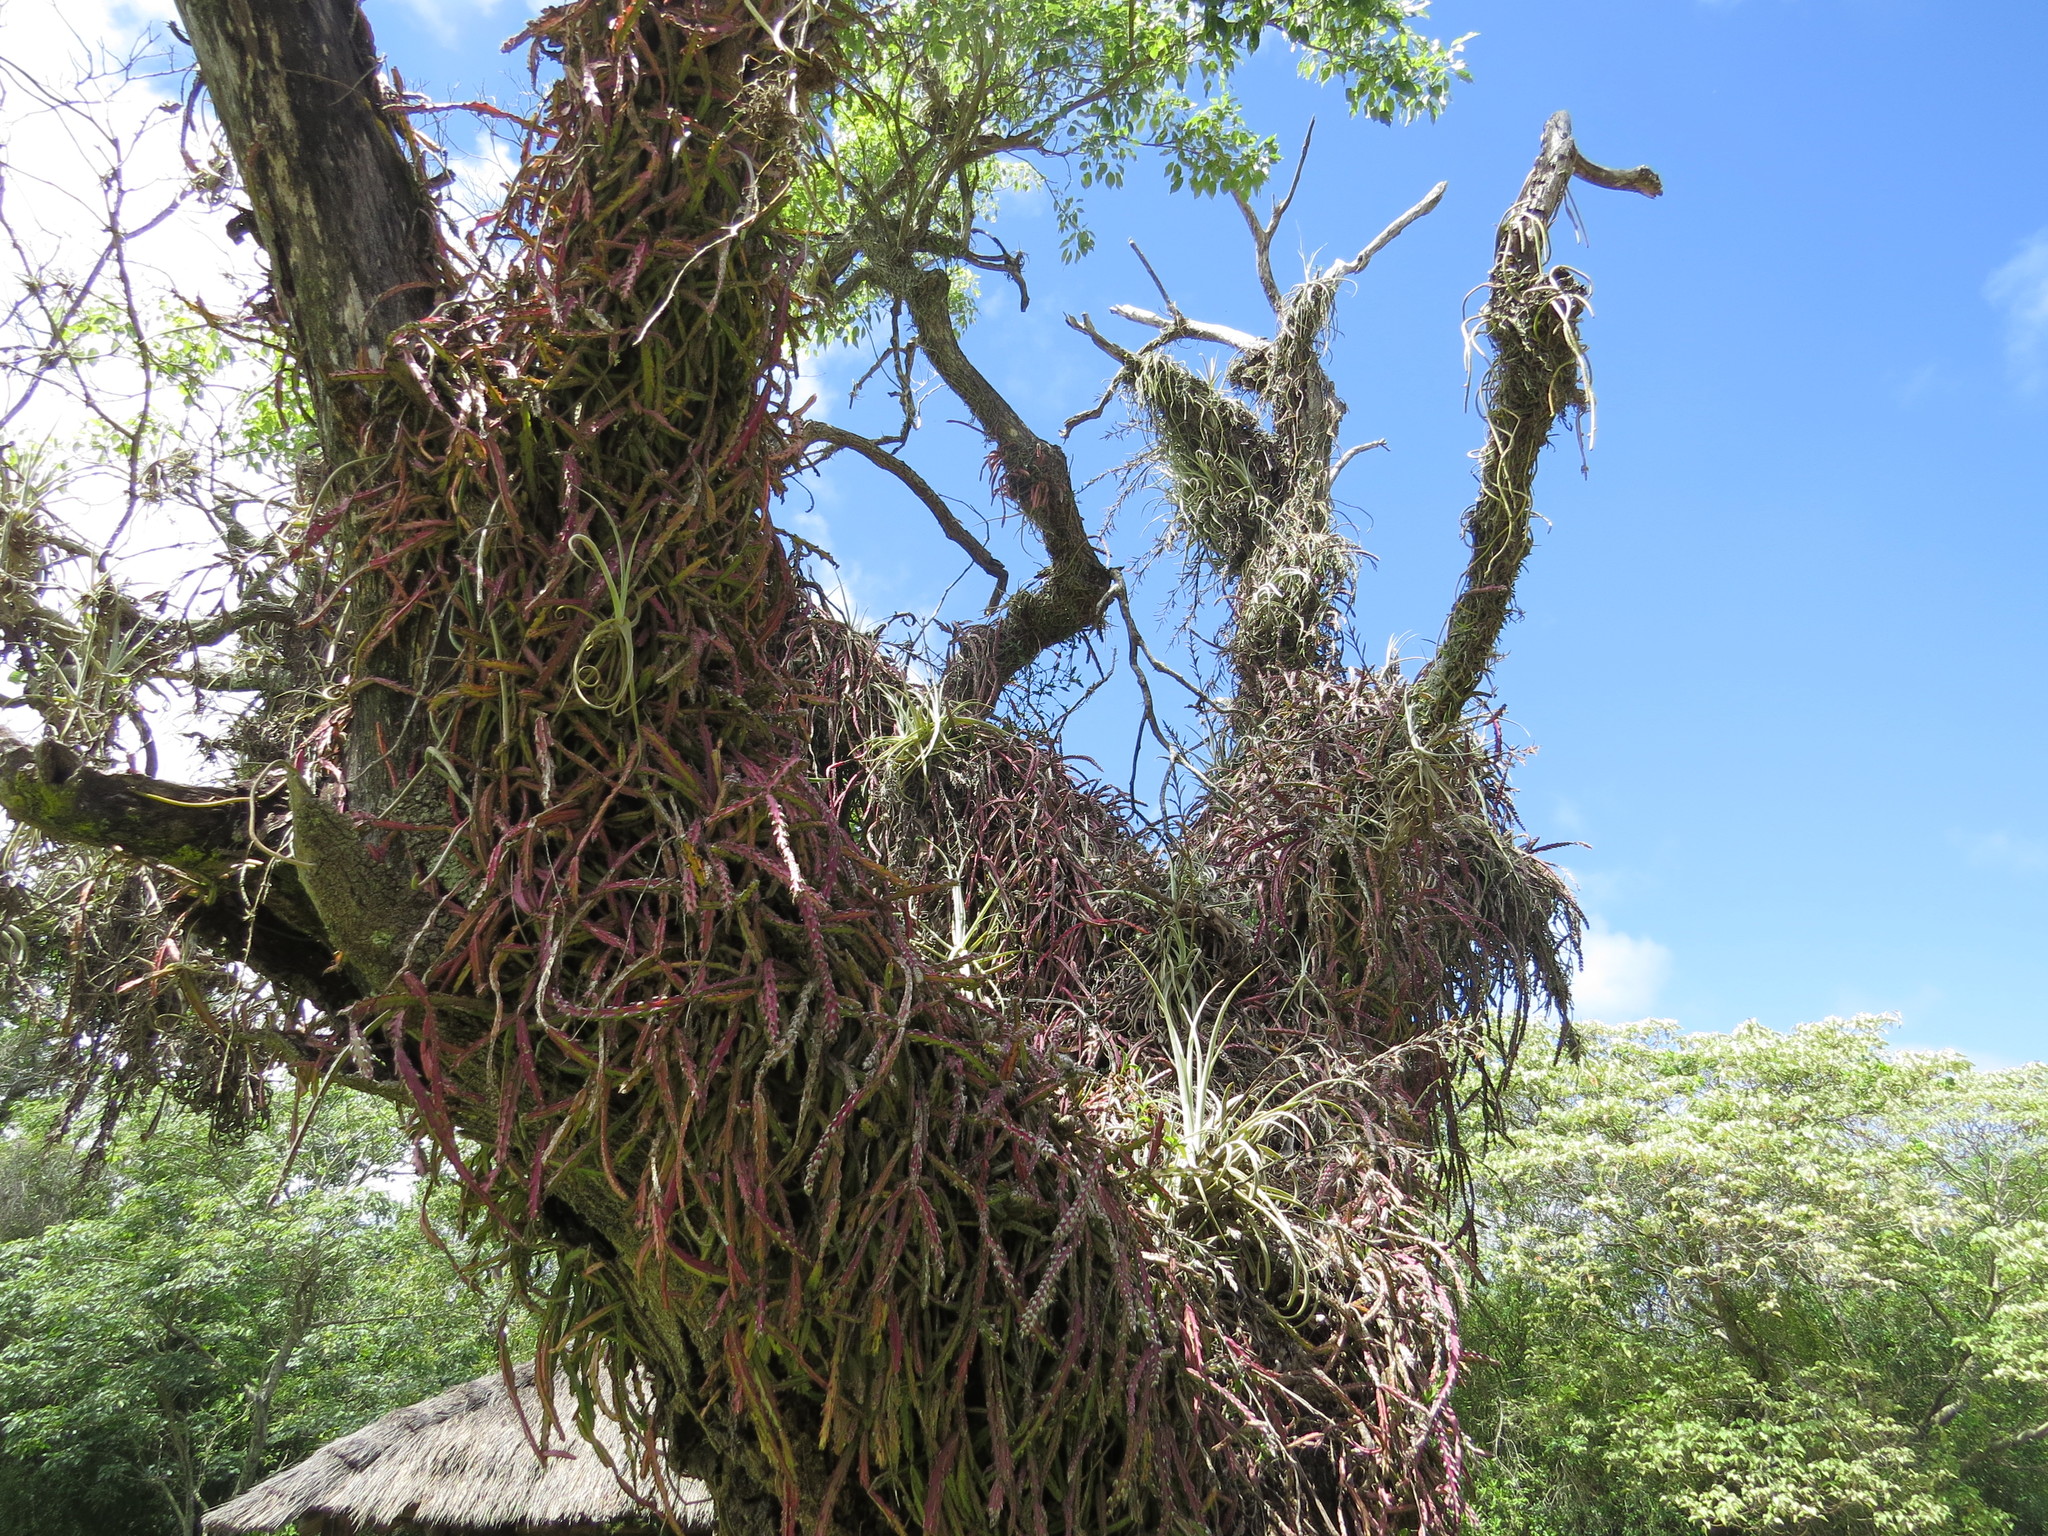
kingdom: Plantae
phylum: Tracheophyta
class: Magnoliopsida
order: Caryophyllales
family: Cactaceae
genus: Lepismium
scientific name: Lepismium cruciforme
